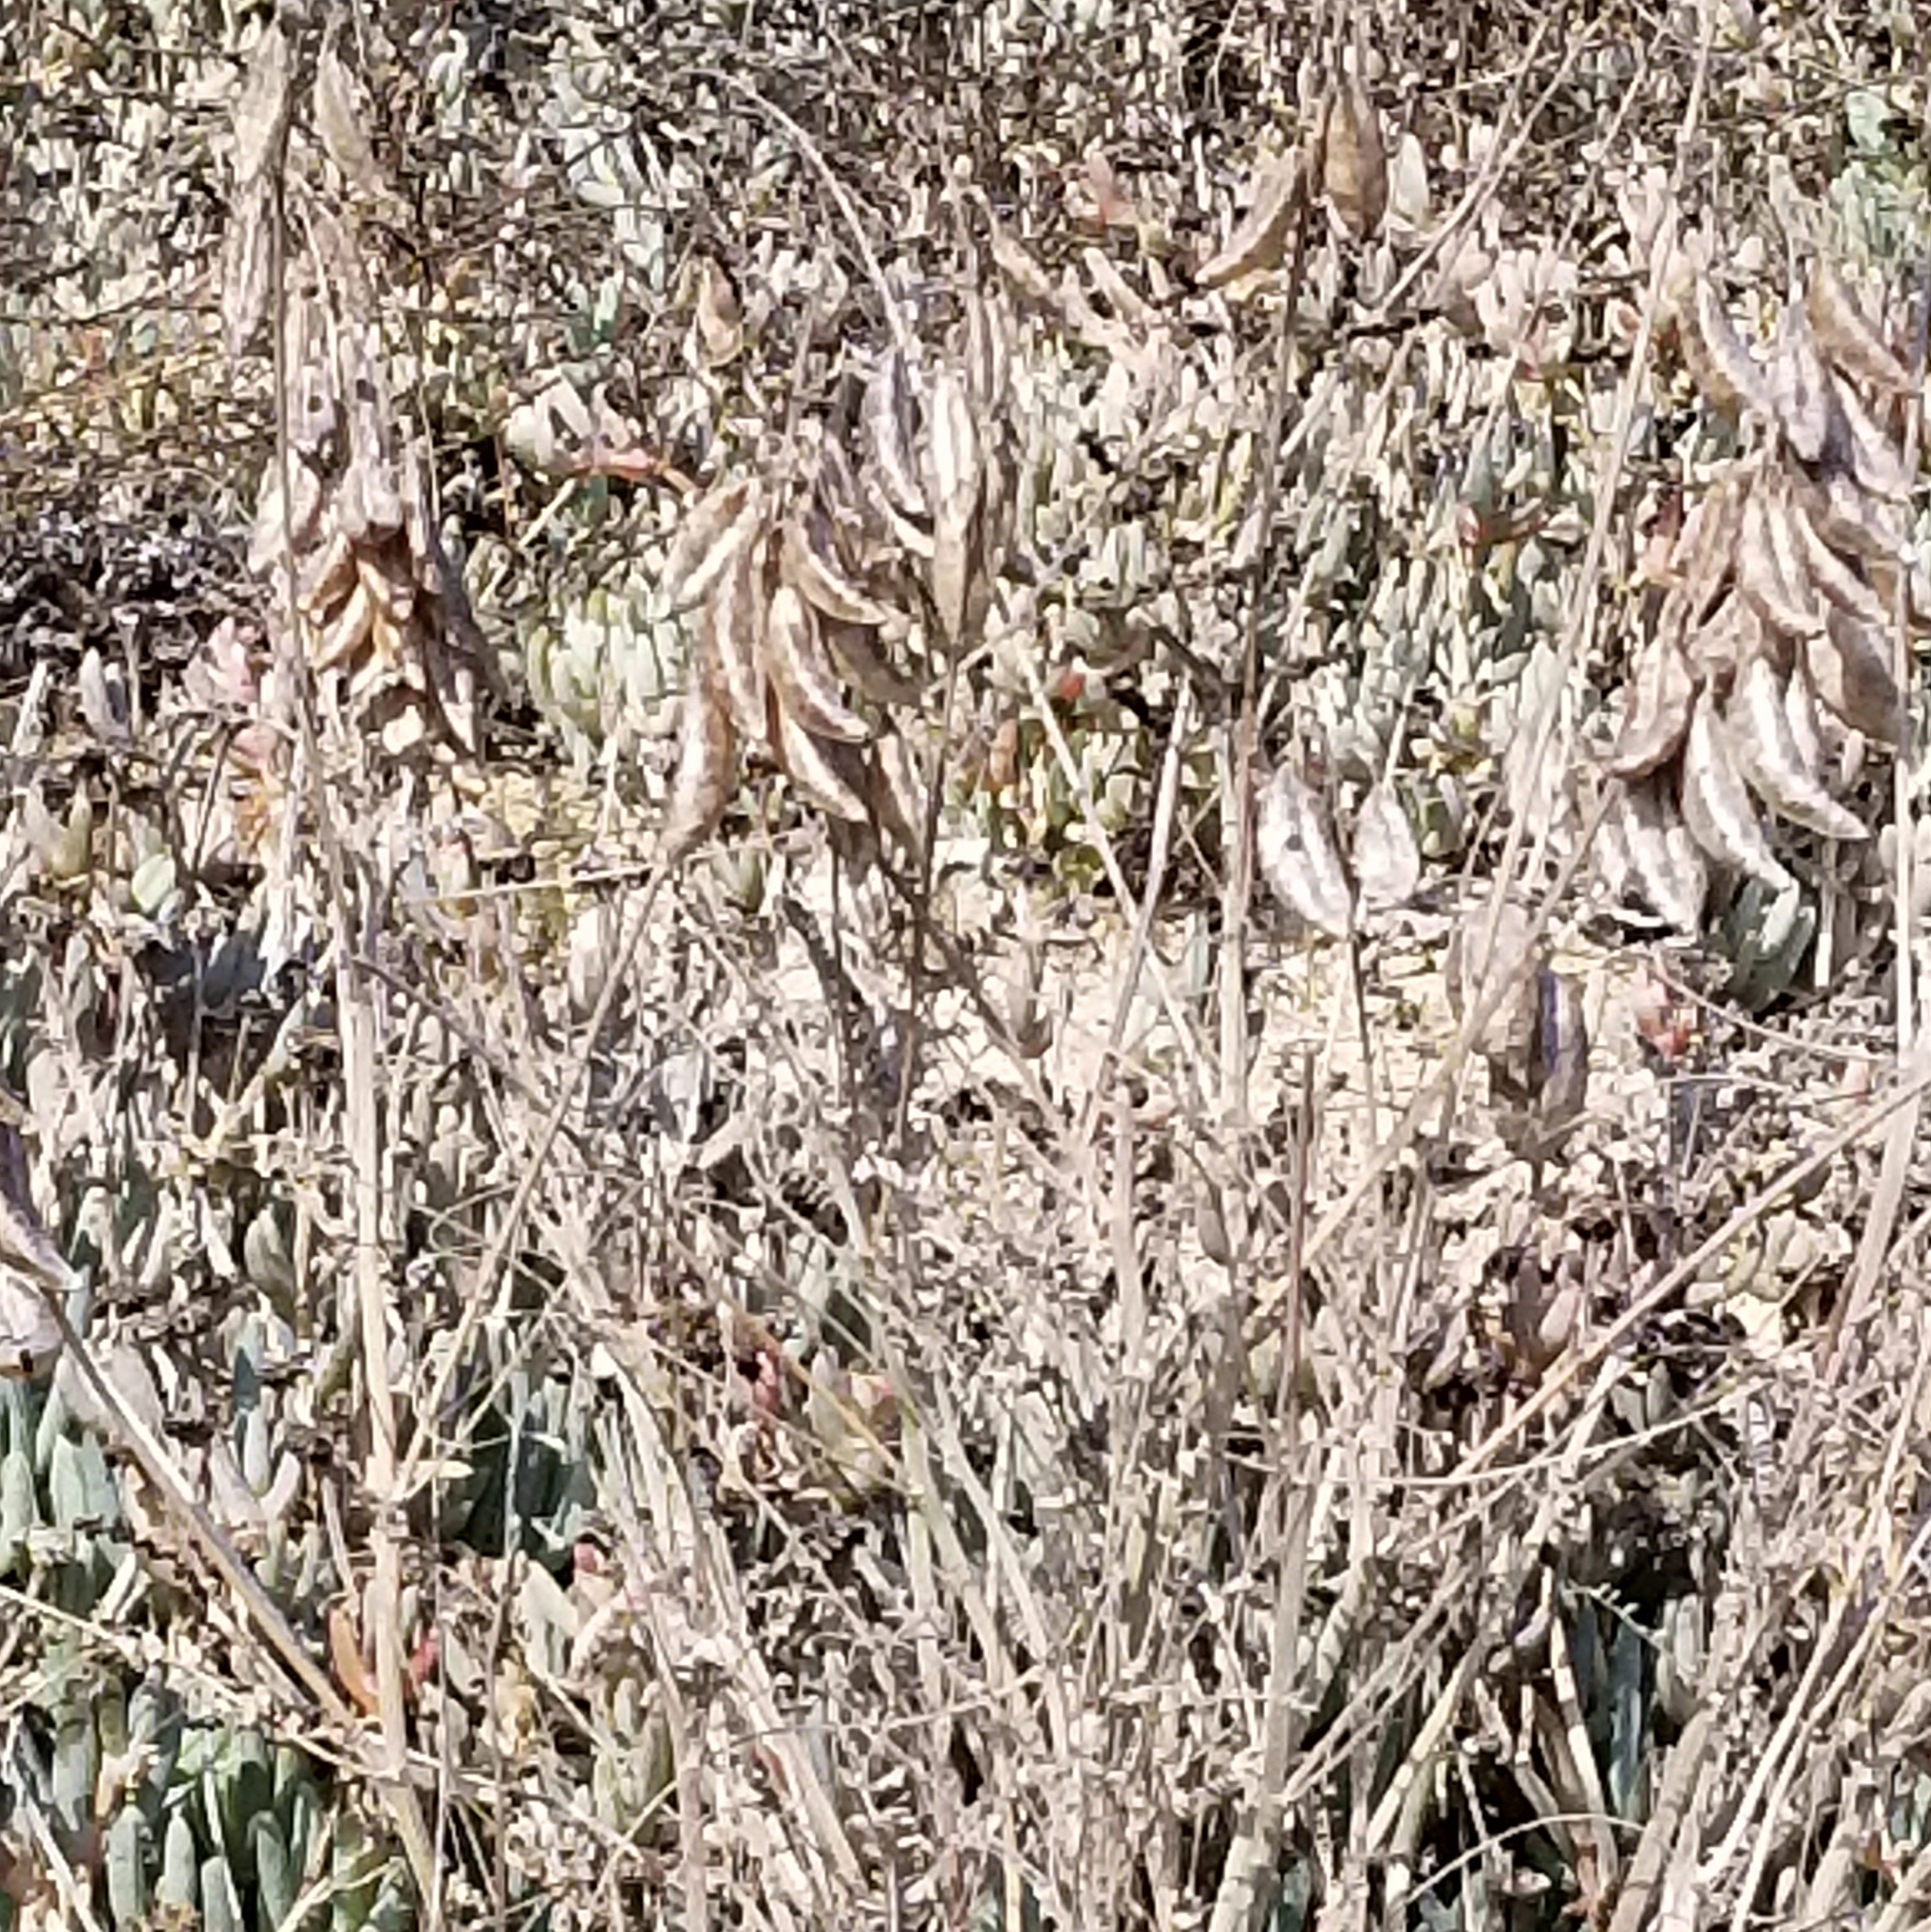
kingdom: Plantae
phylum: Tracheophyta
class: Magnoliopsida
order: Fabales
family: Fabaceae
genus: Astragalus
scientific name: Astragalus trichopodus
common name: Santa barbara milk-vetch
